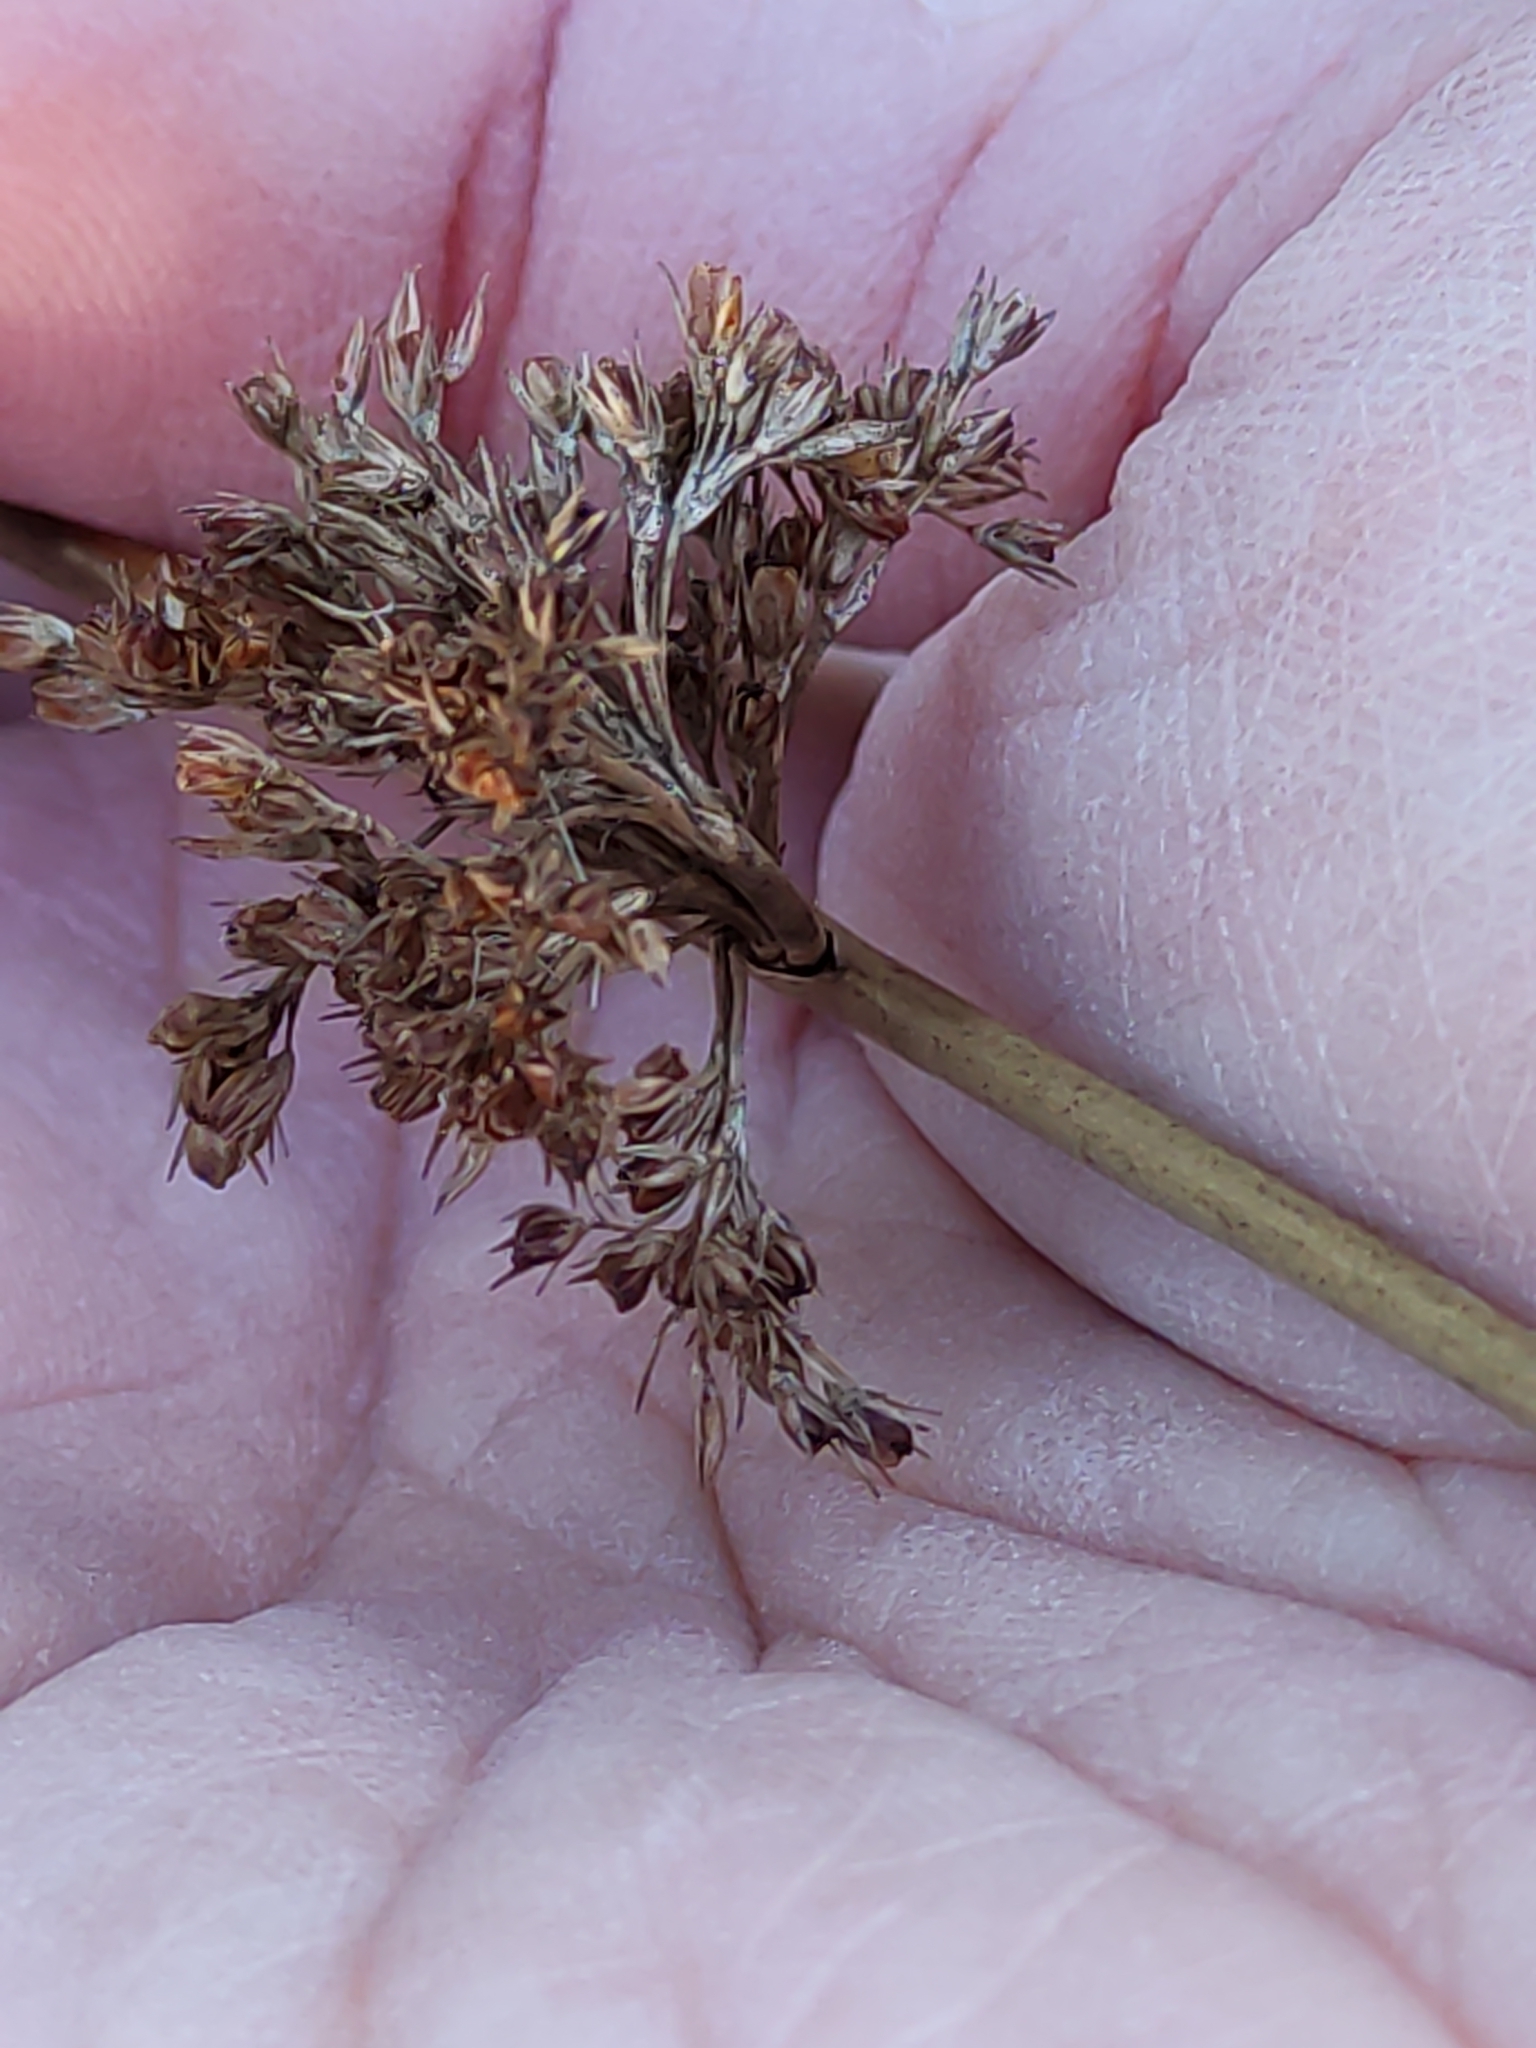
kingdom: Plantae
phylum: Tracheophyta
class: Liliopsida
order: Poales
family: Juncaceae
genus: Juncus
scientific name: Juncus effusus
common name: Soft rush
